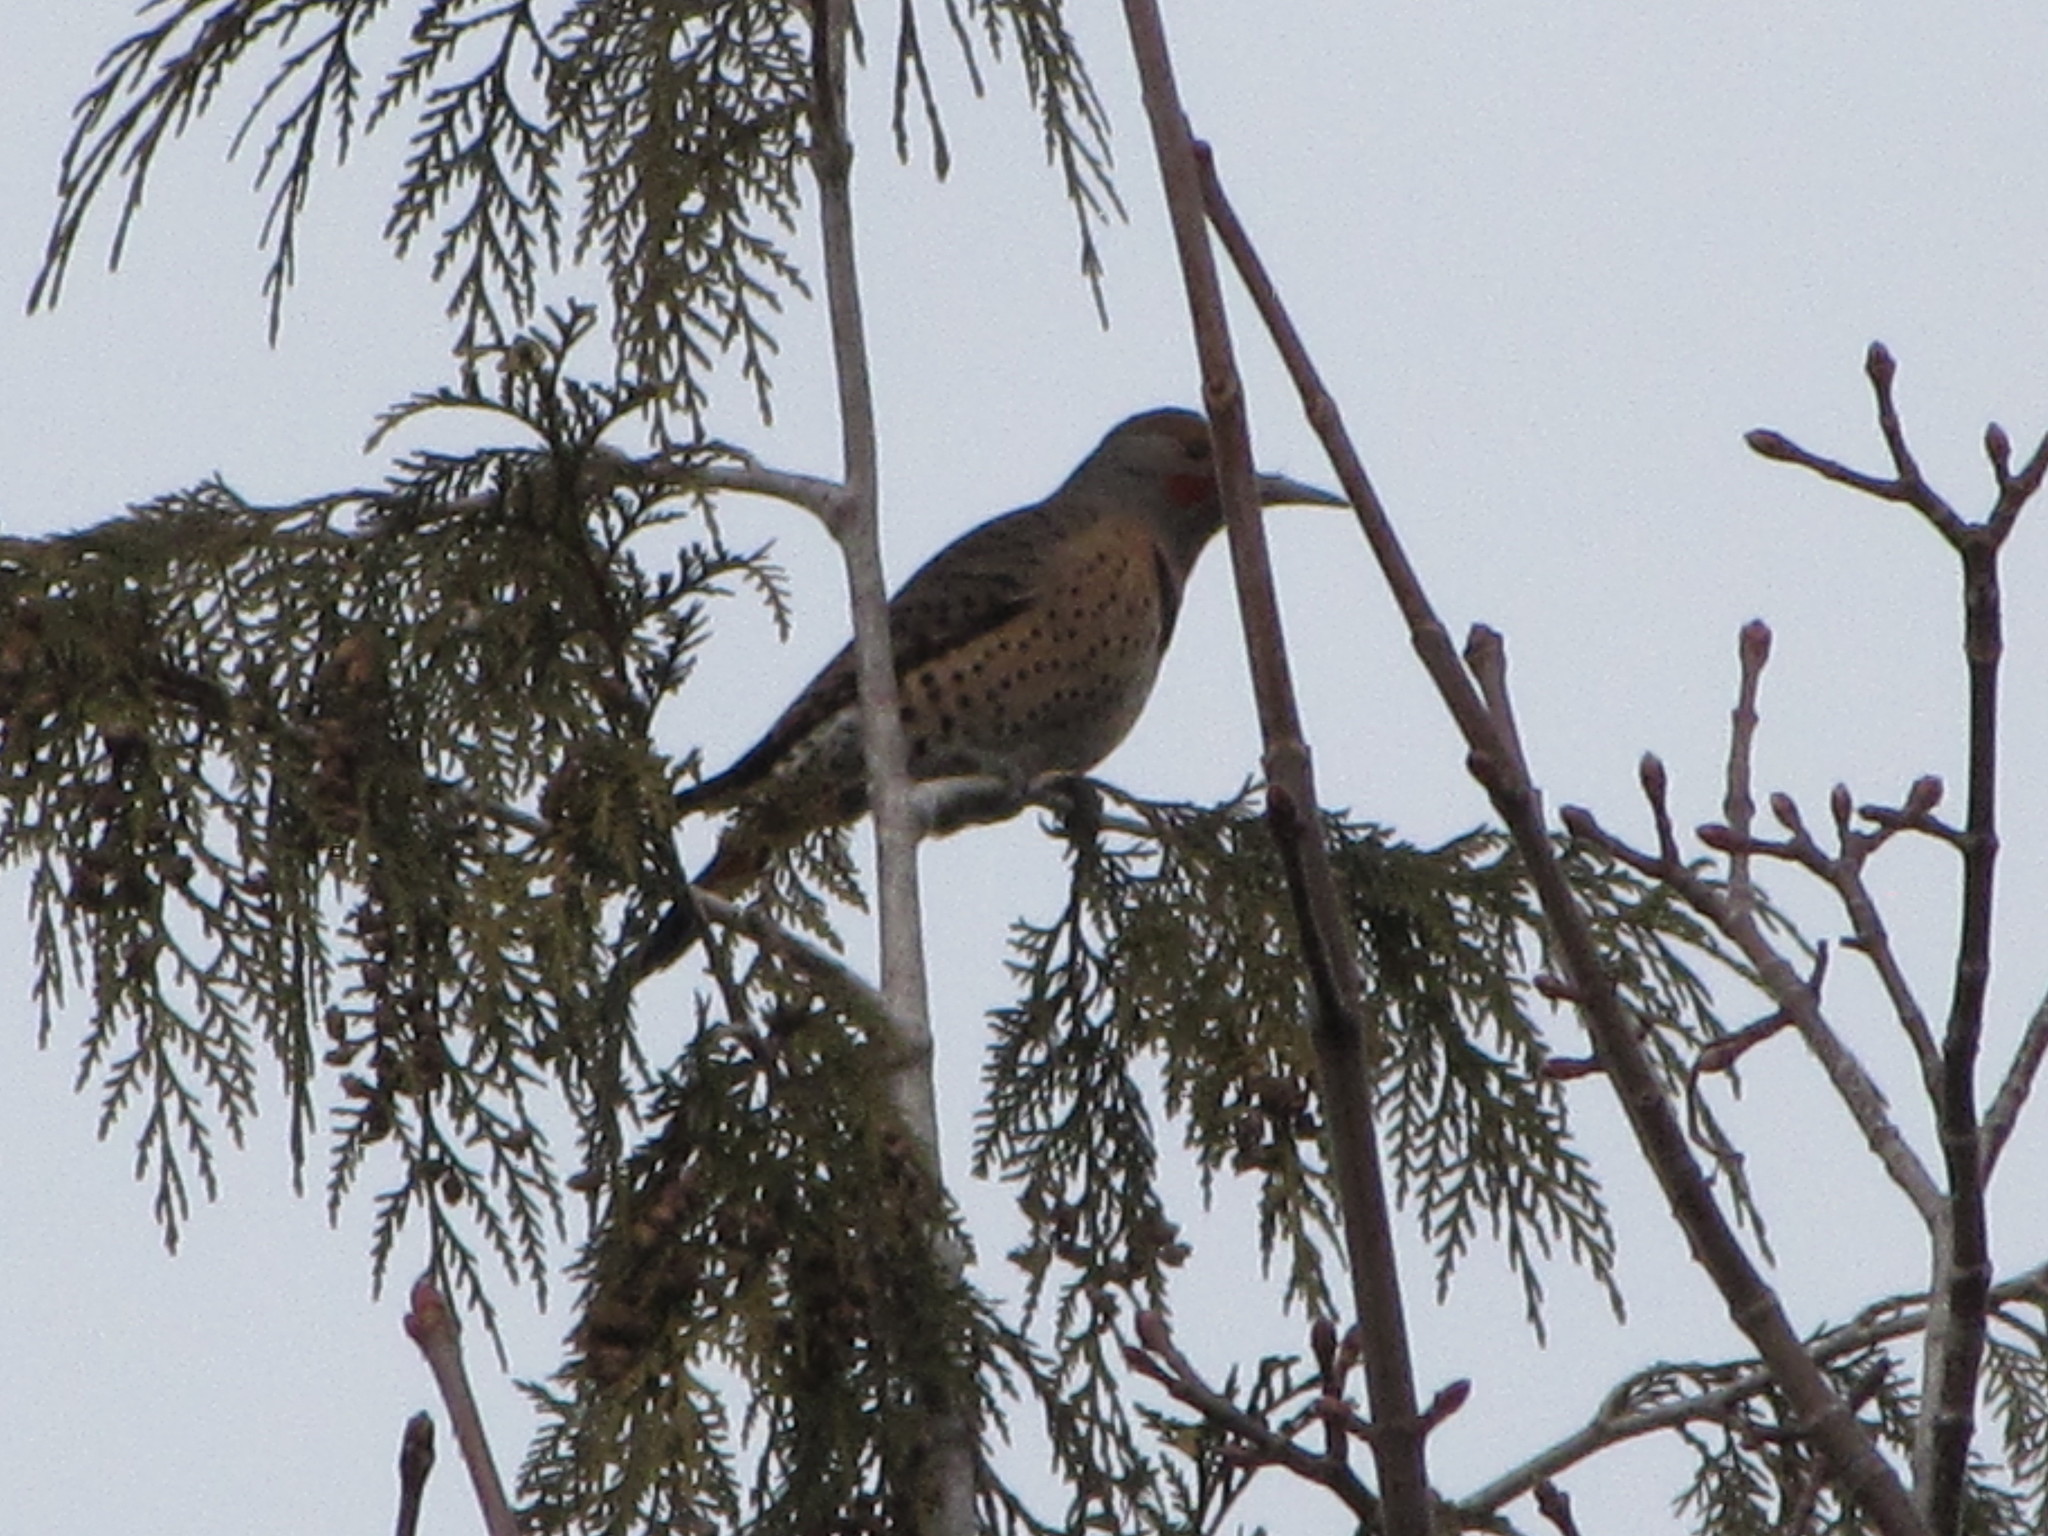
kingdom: Animalia
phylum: Chordata
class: Aves
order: Piciformes
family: Picidae
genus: Colaptes
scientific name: Colaptes auratus
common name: Northern flicker
